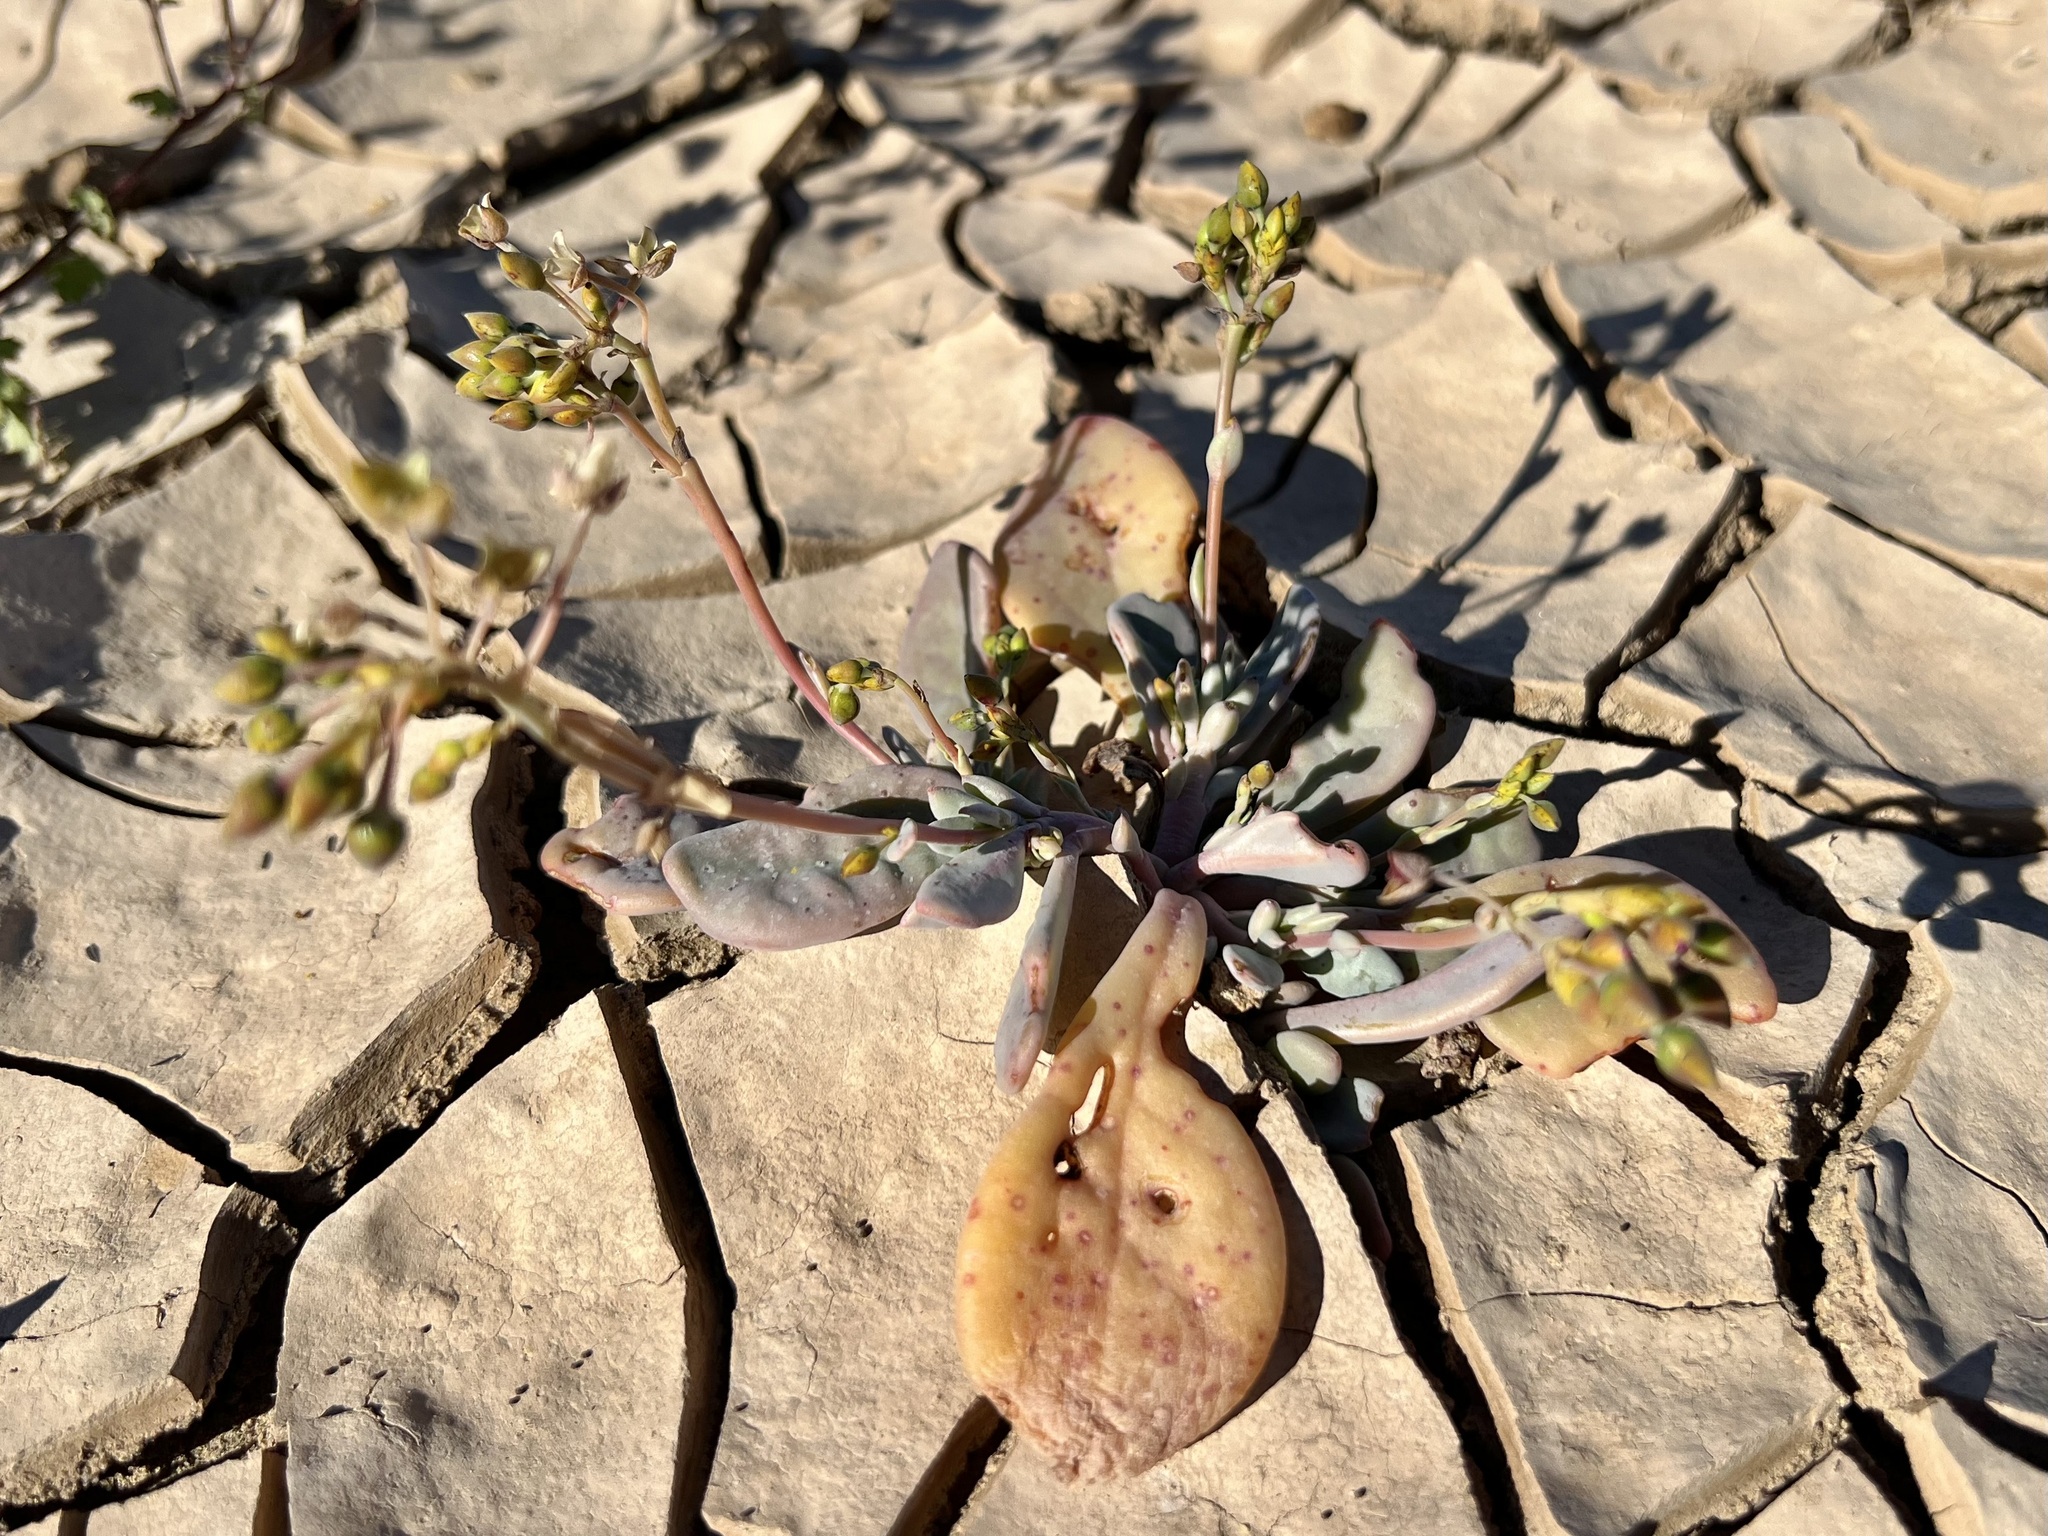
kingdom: Plantae
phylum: Tracheophyta
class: Magnoliopsida
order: Caryophyllales
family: Montiaceae
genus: Cistanthe
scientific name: Cistanthe maritima
